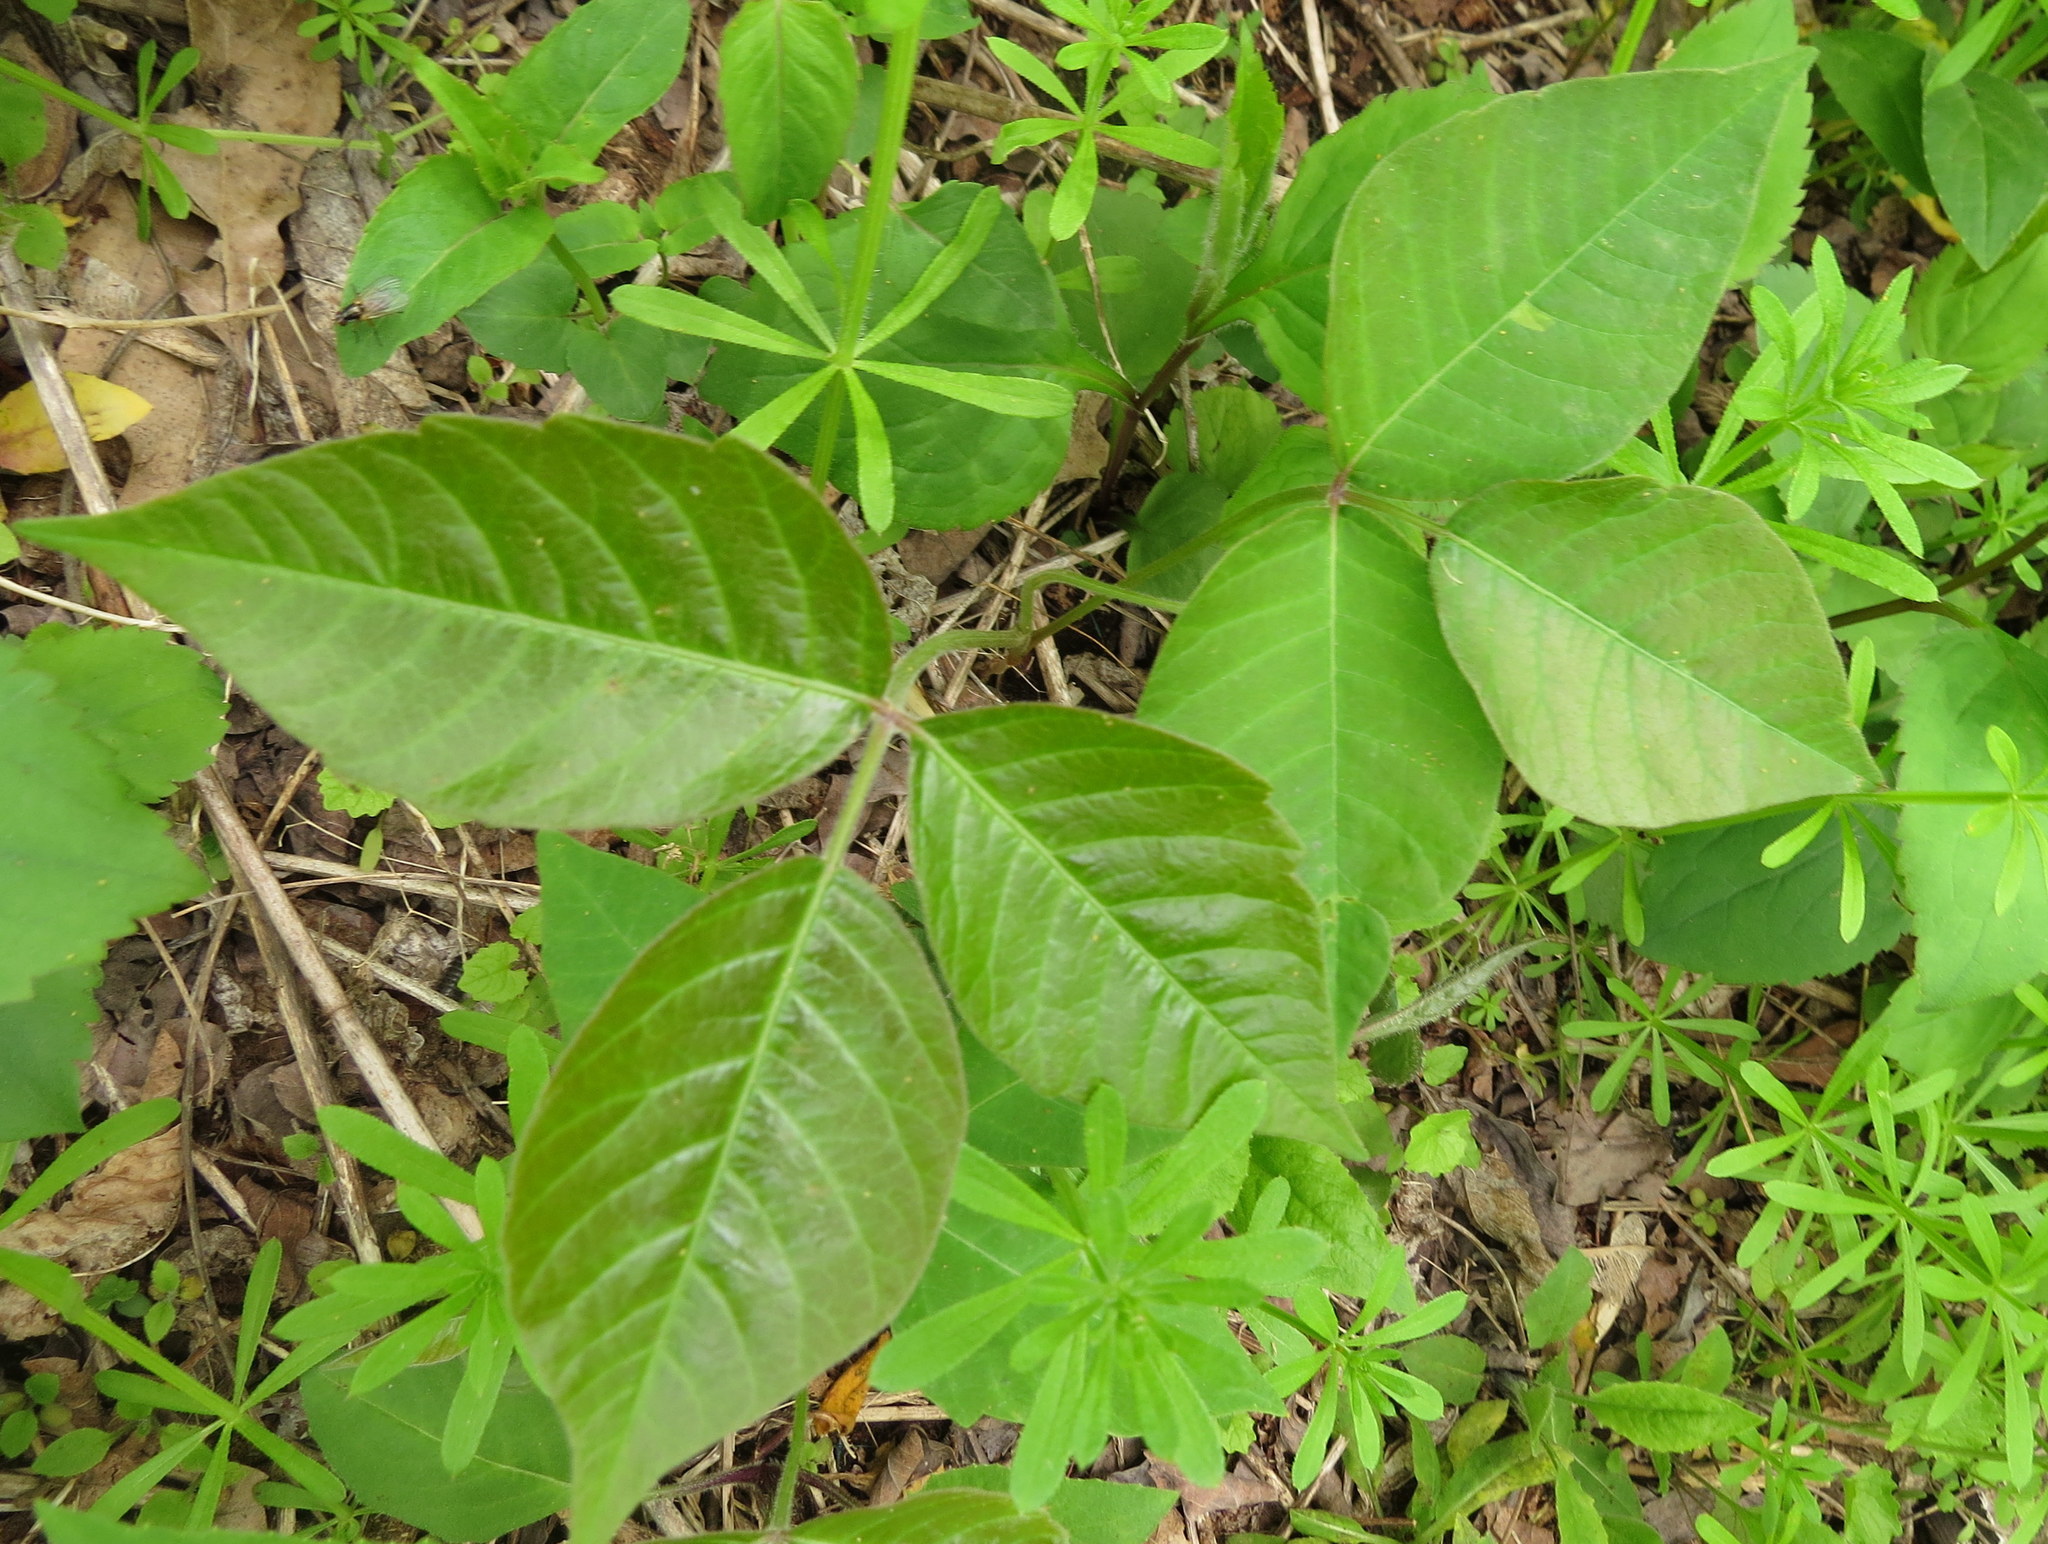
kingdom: Plantae
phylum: Tracheophyta
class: Magnoliopsida
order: Sapindales
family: Anacardiaceae
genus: Toxicodendron
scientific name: Toxicodendron radicans
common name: Poison ivy
